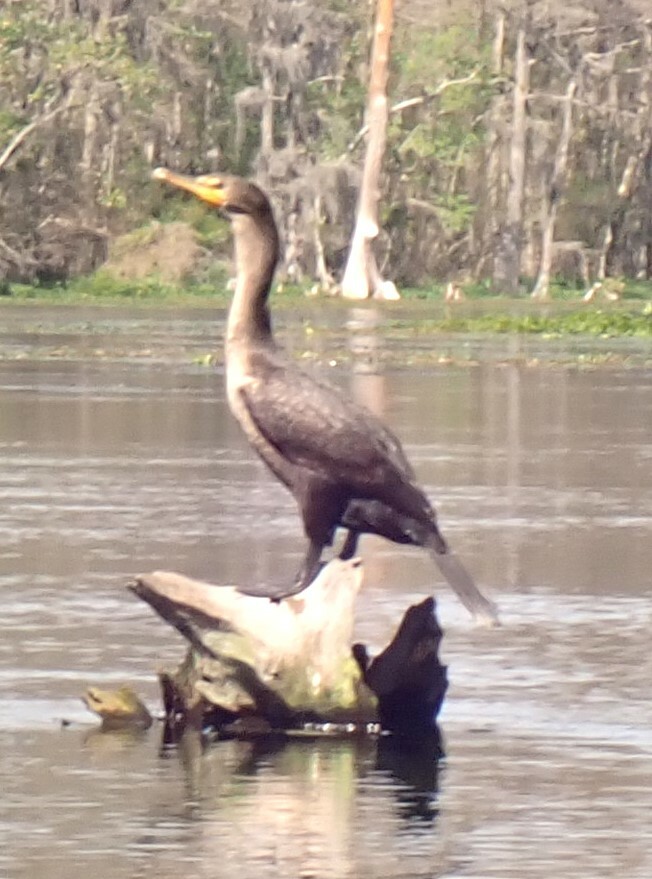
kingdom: Animalia
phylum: Chordata
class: Aves
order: Suliformes
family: Phalacrocoracidae
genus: Phalacrocorax
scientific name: Phalacrocorax auritus
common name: Double-crested cormorant
